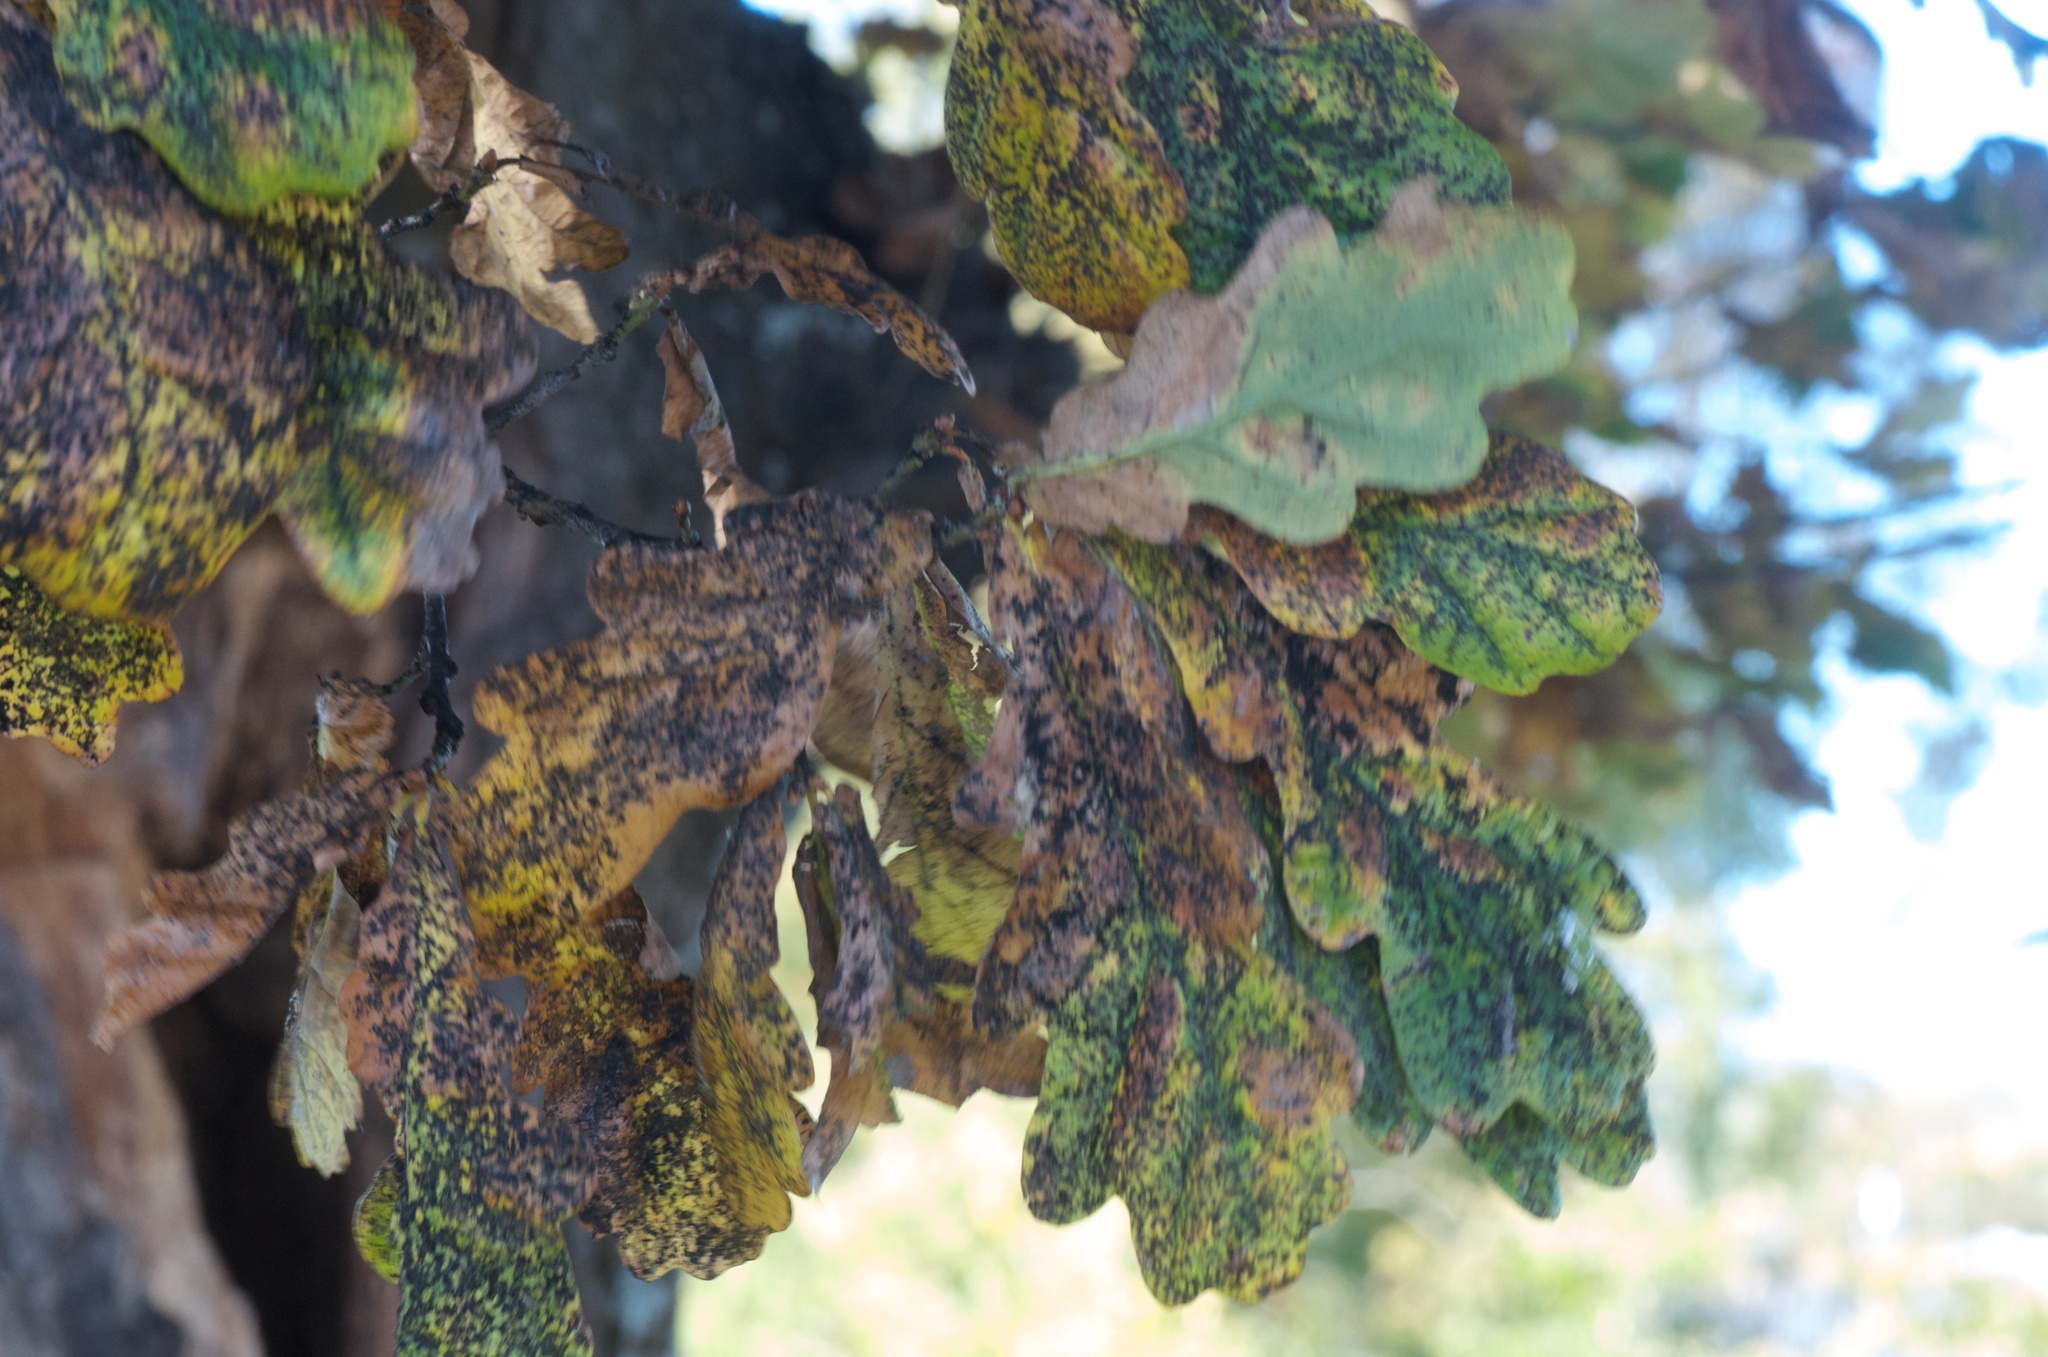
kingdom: Plantae
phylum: Tracheophyta
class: Magnoliopsida
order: Fagales
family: Fagaceae
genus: Quercus
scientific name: Quercus robur
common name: Pedunculate oak
